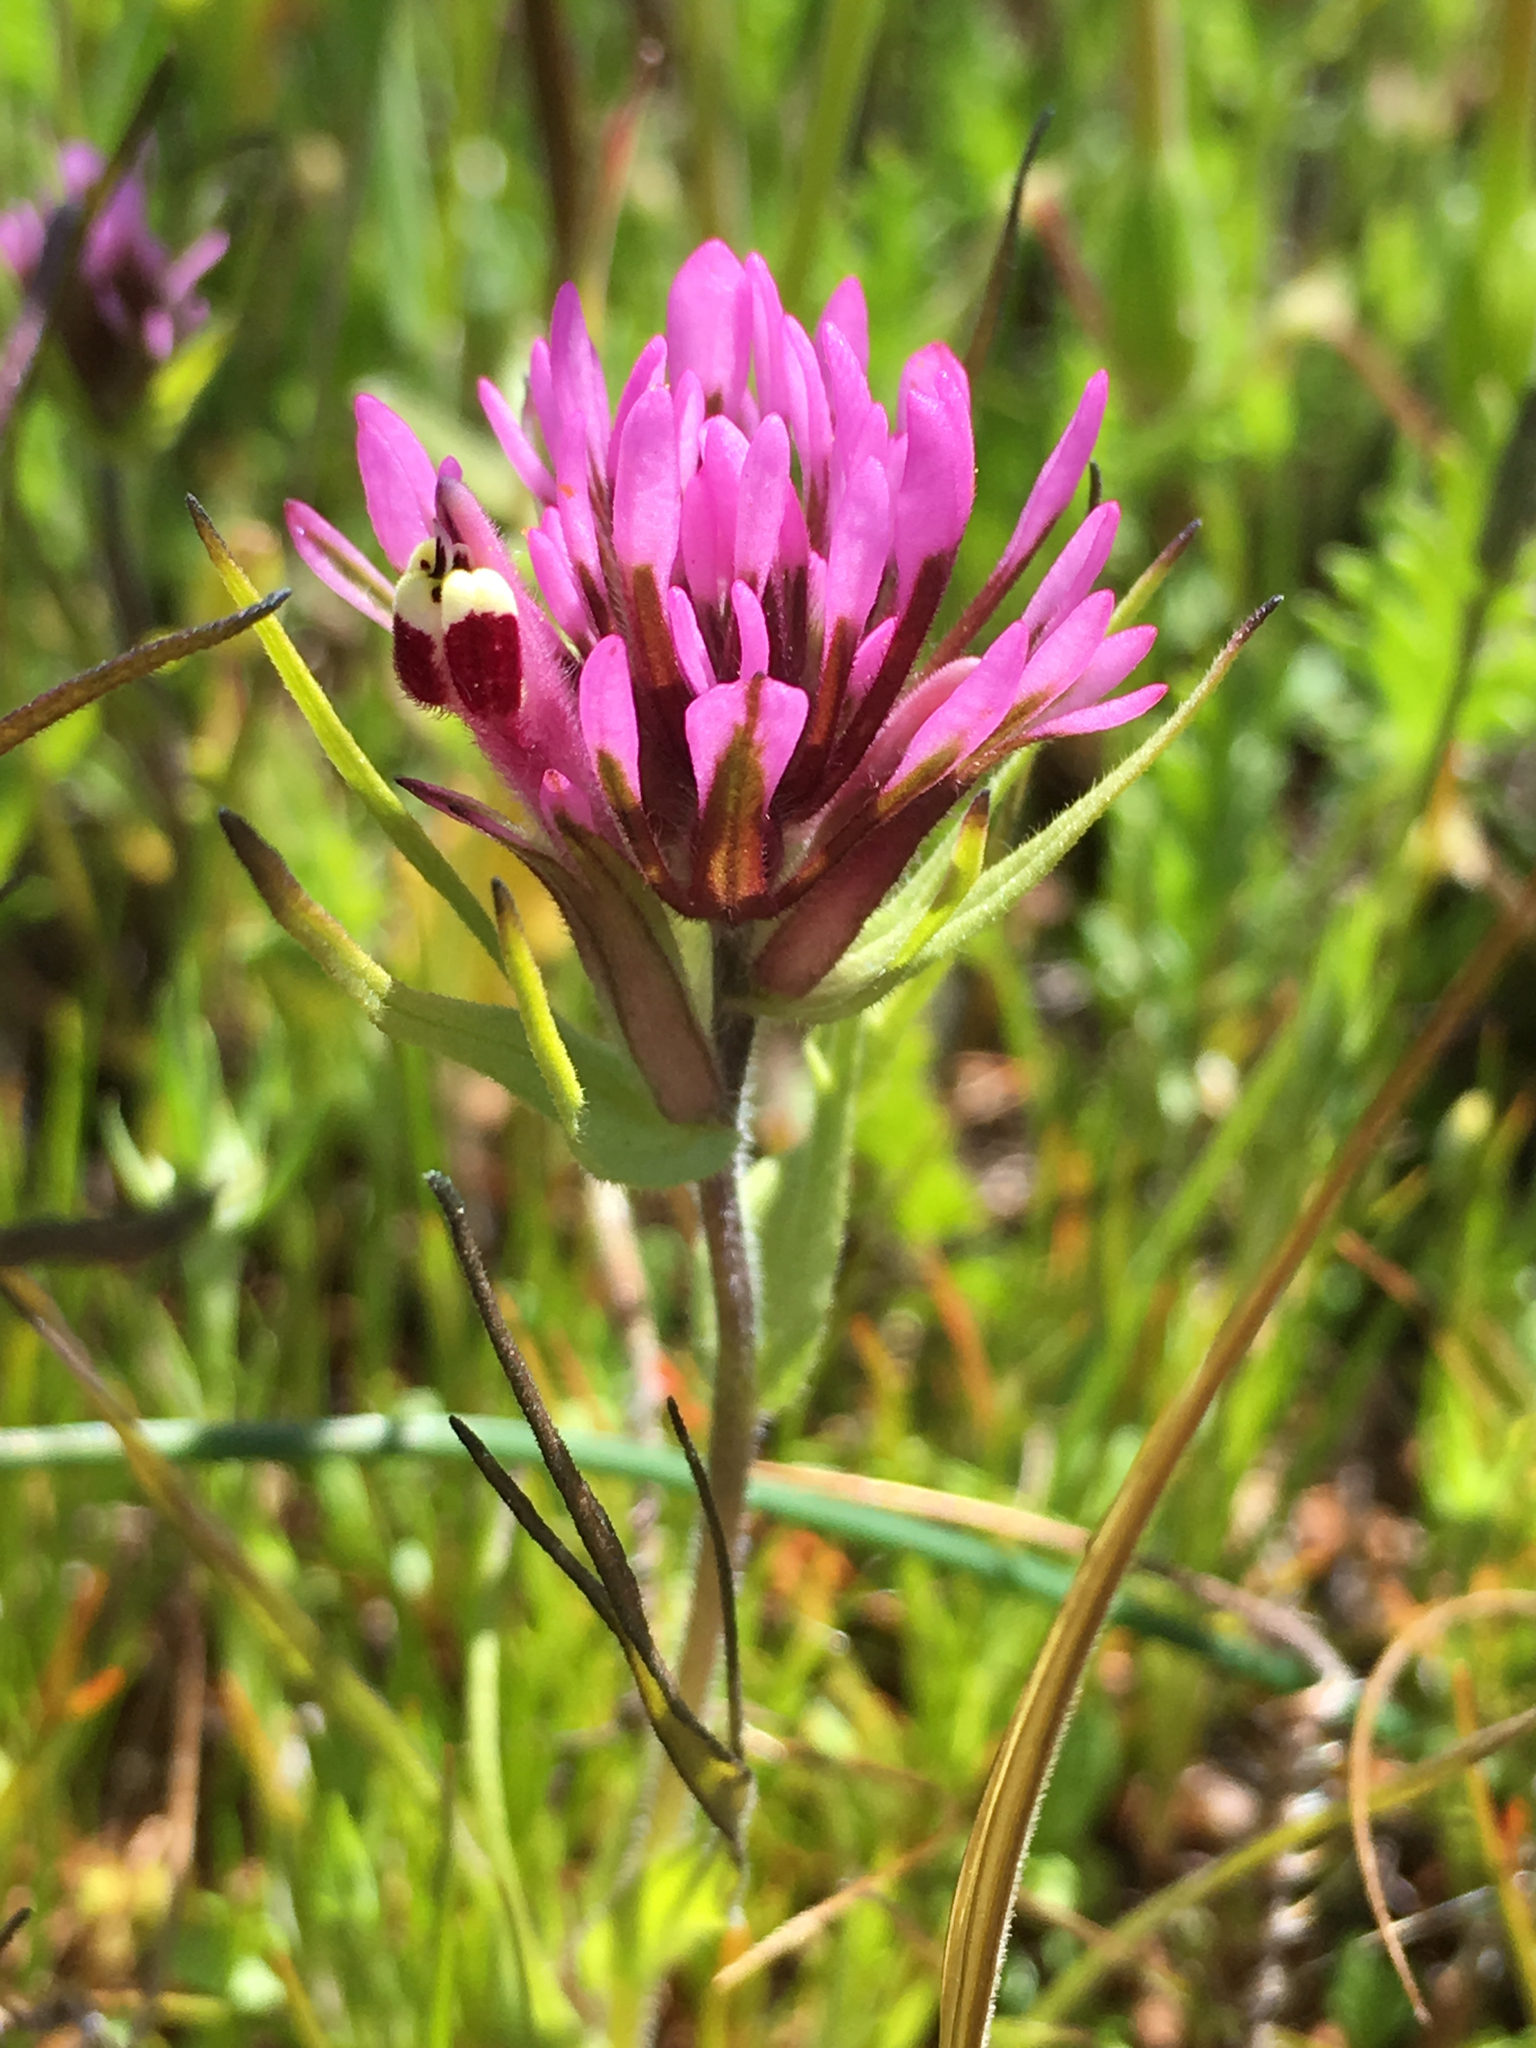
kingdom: Plantae
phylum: Tracheophyta
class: Magnoliopsida
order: Lamiales
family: Orobanchaceae
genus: Castilleja
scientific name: Castilleja densiflora
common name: Dense-flower indian paintbrush
